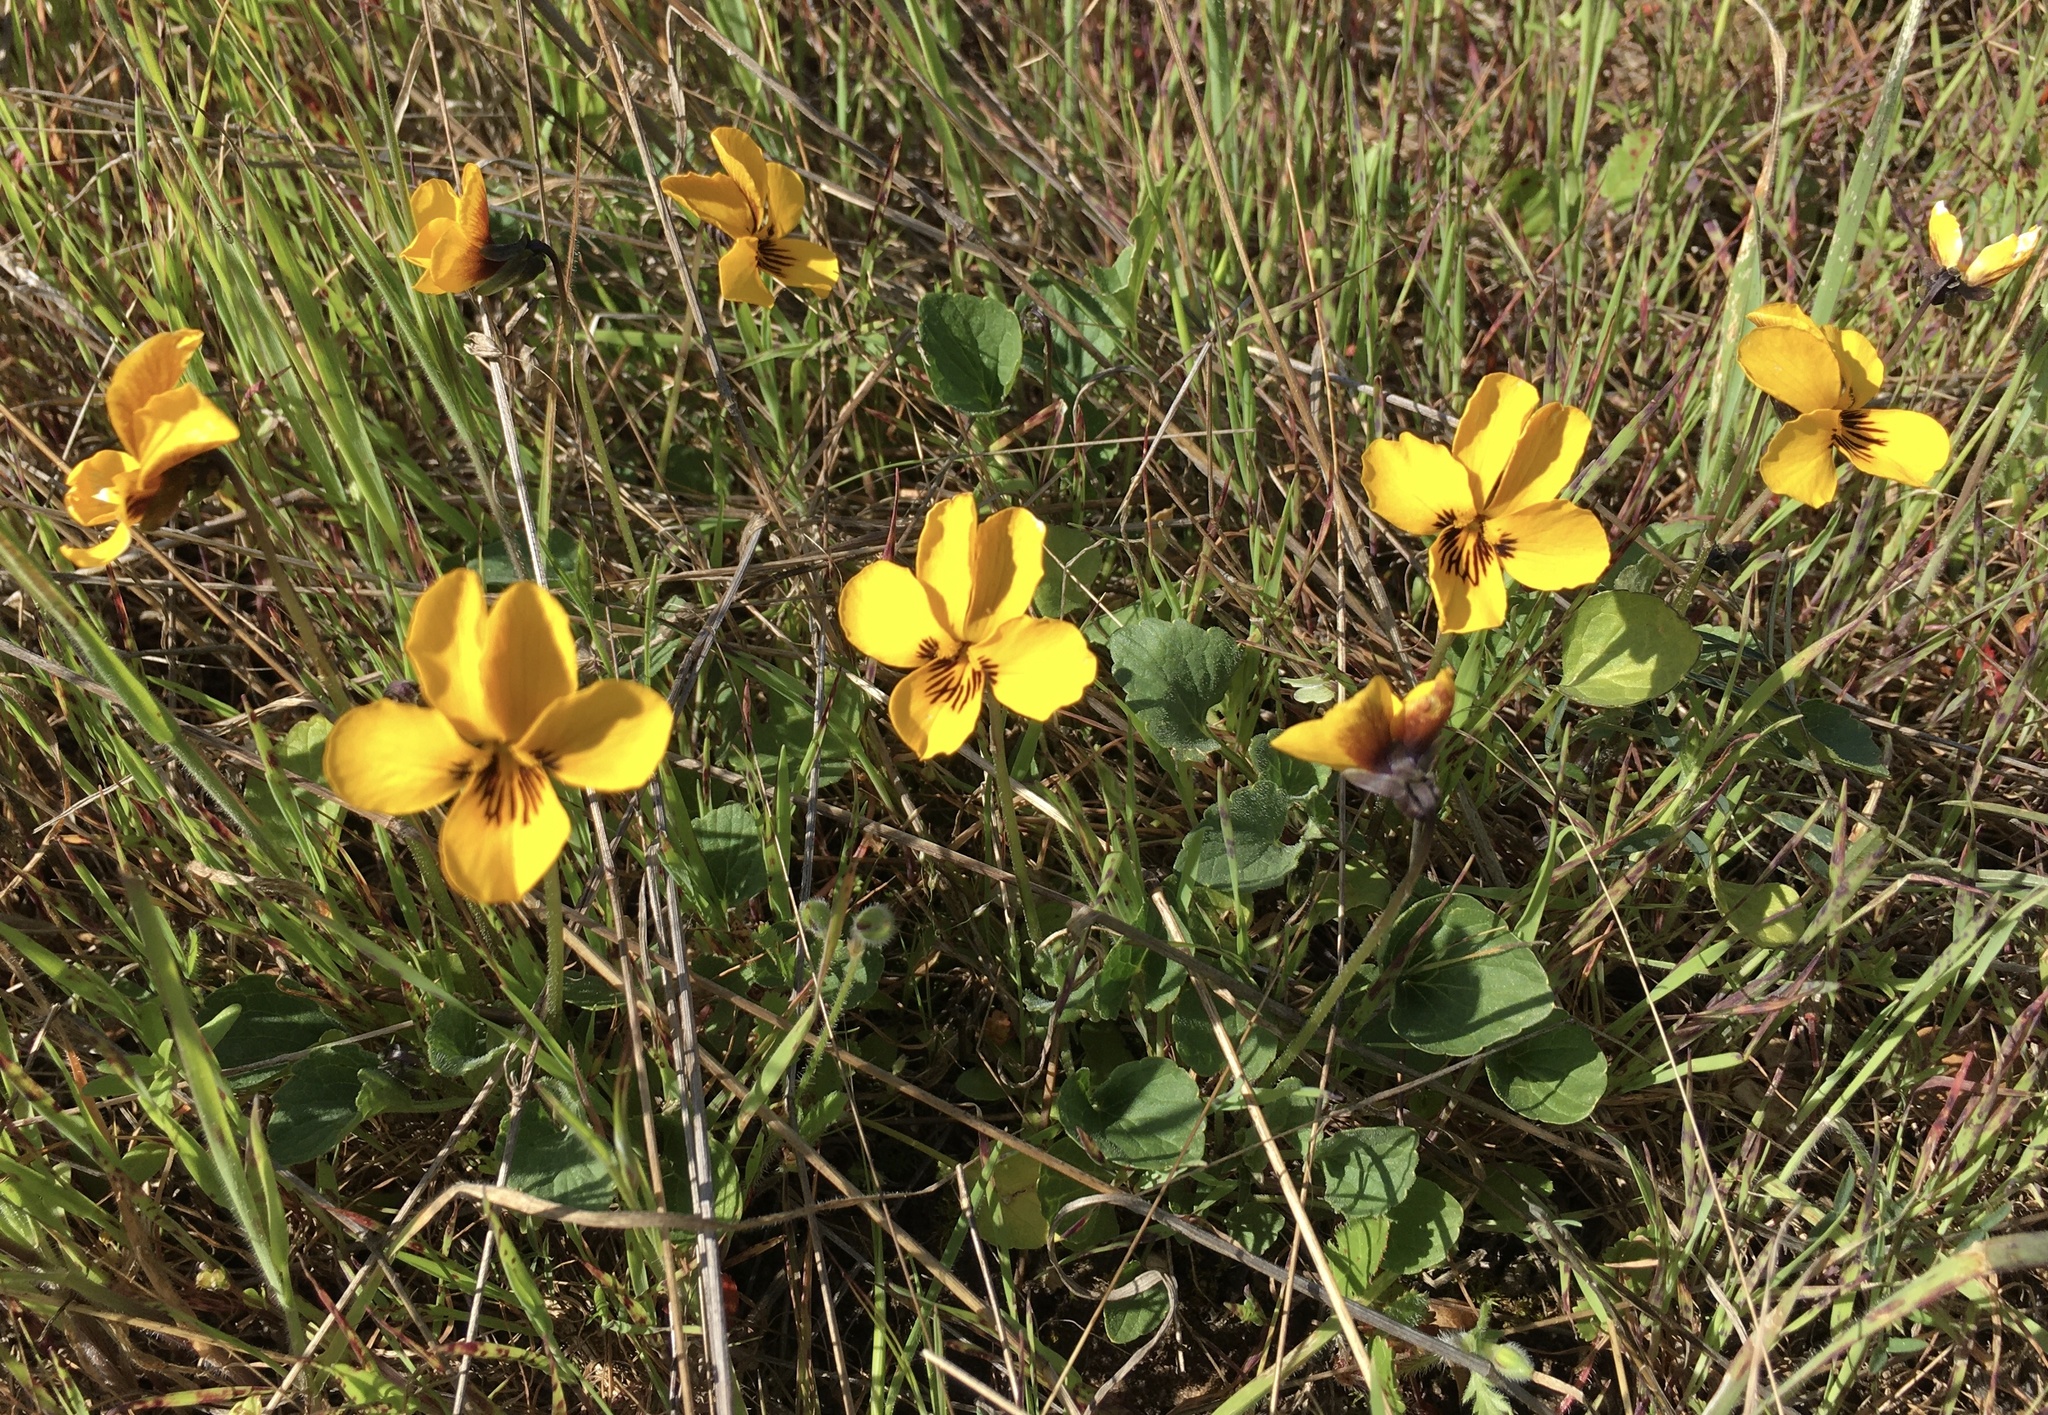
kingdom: Plantae
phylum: Tracheophyta
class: Magnoliopsida
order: Malpighiales
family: Violaceae
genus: Viola
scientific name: Viola pedunculata
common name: California golden violet
